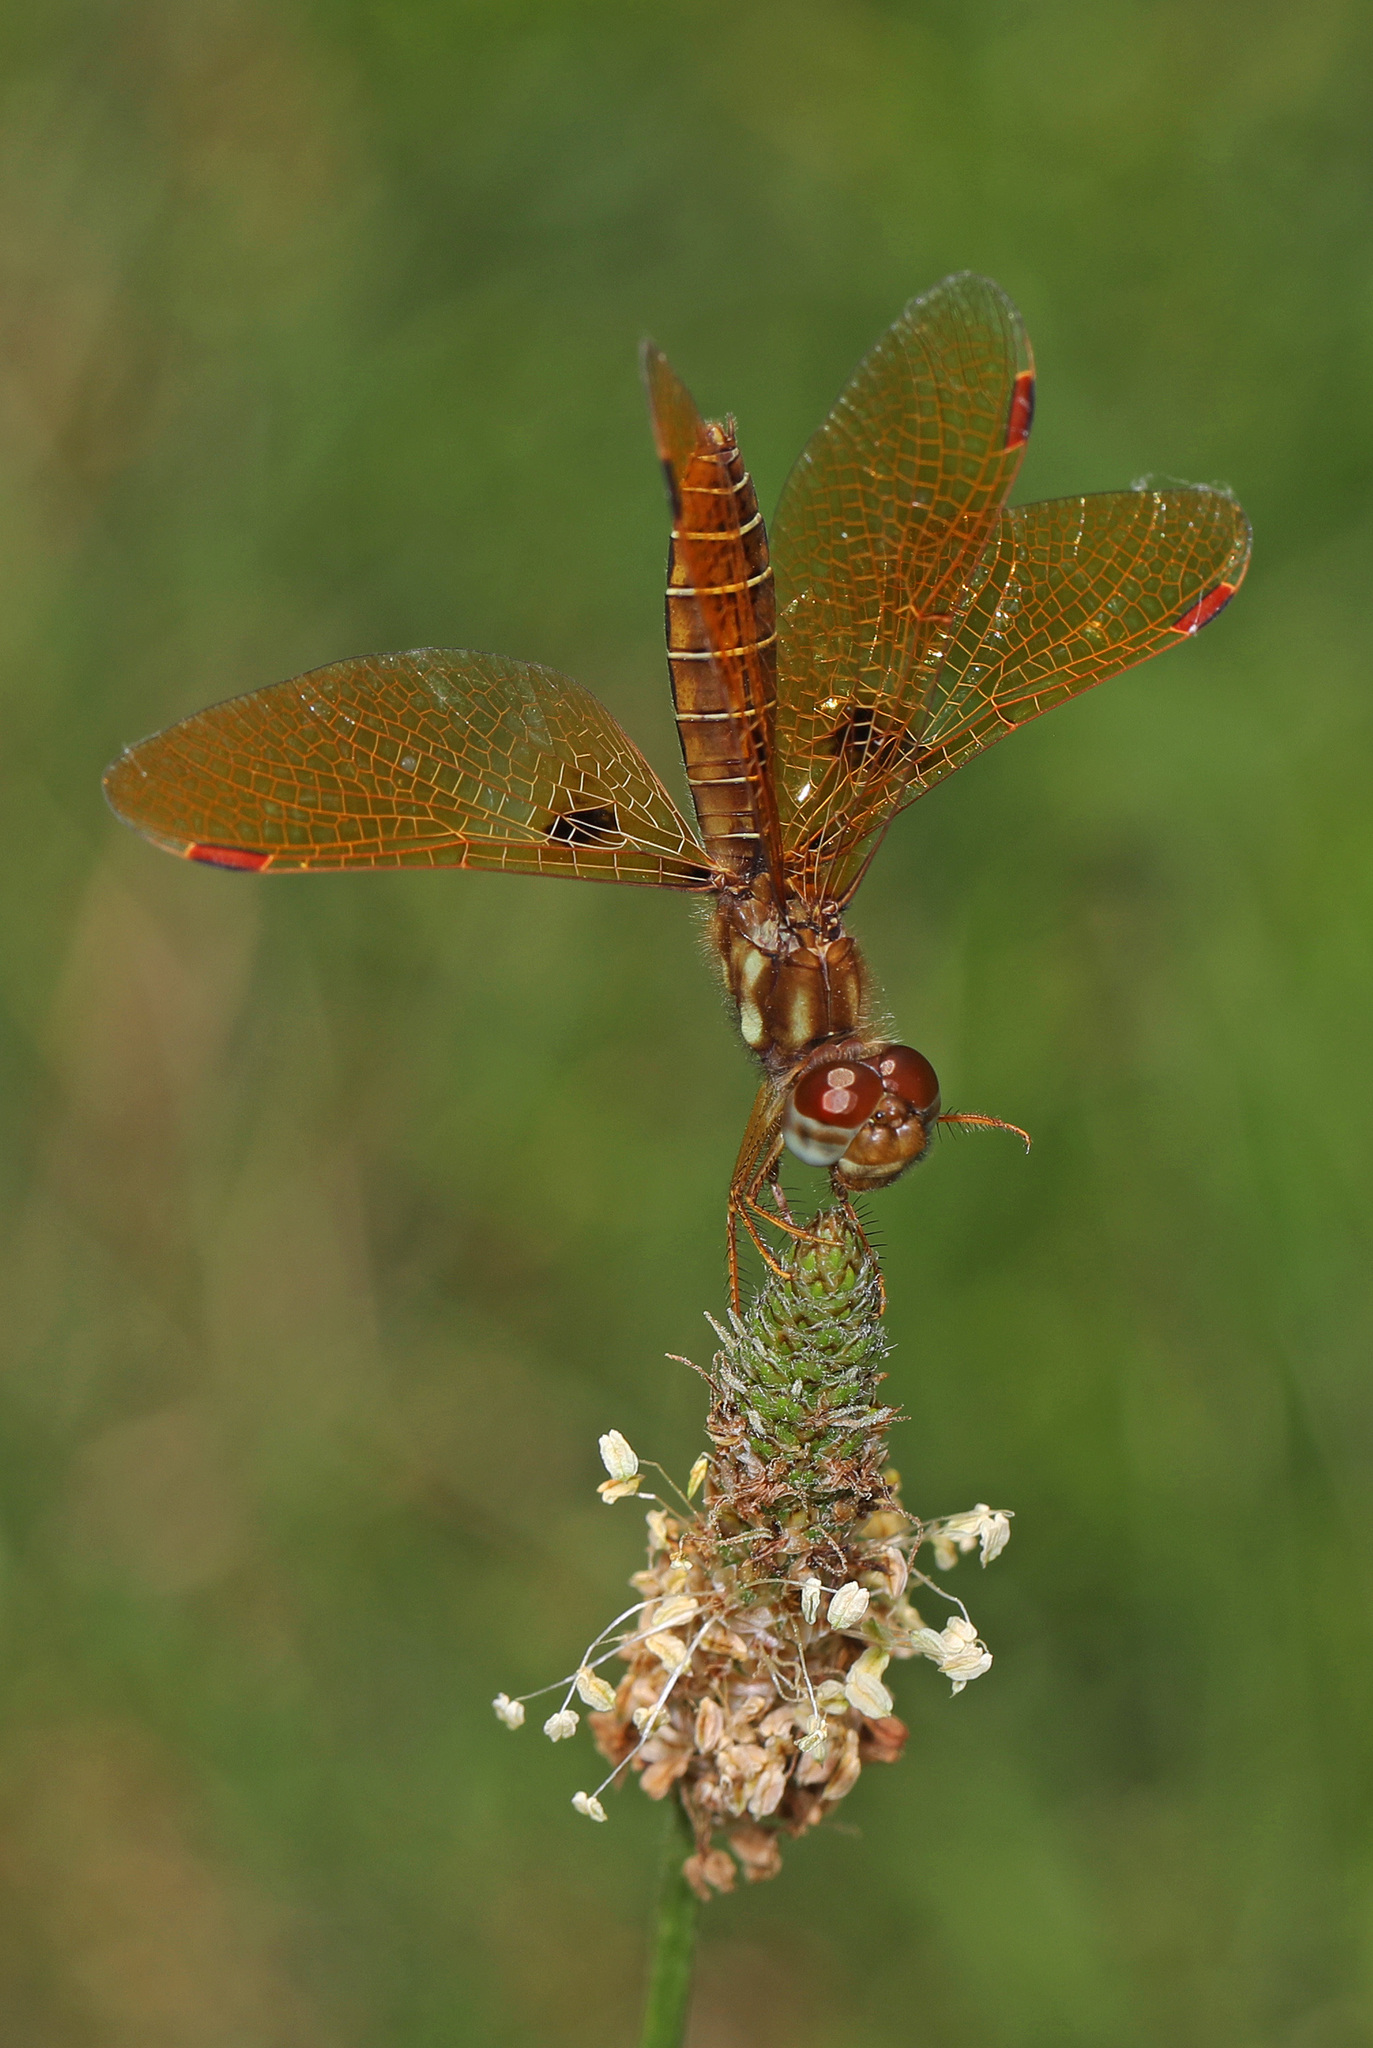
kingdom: Animalia
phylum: Arthropoda
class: Insecta
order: Odonata
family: Libellulidae
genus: Perithemis
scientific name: Perithemis tenera
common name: Eastern amberwing
